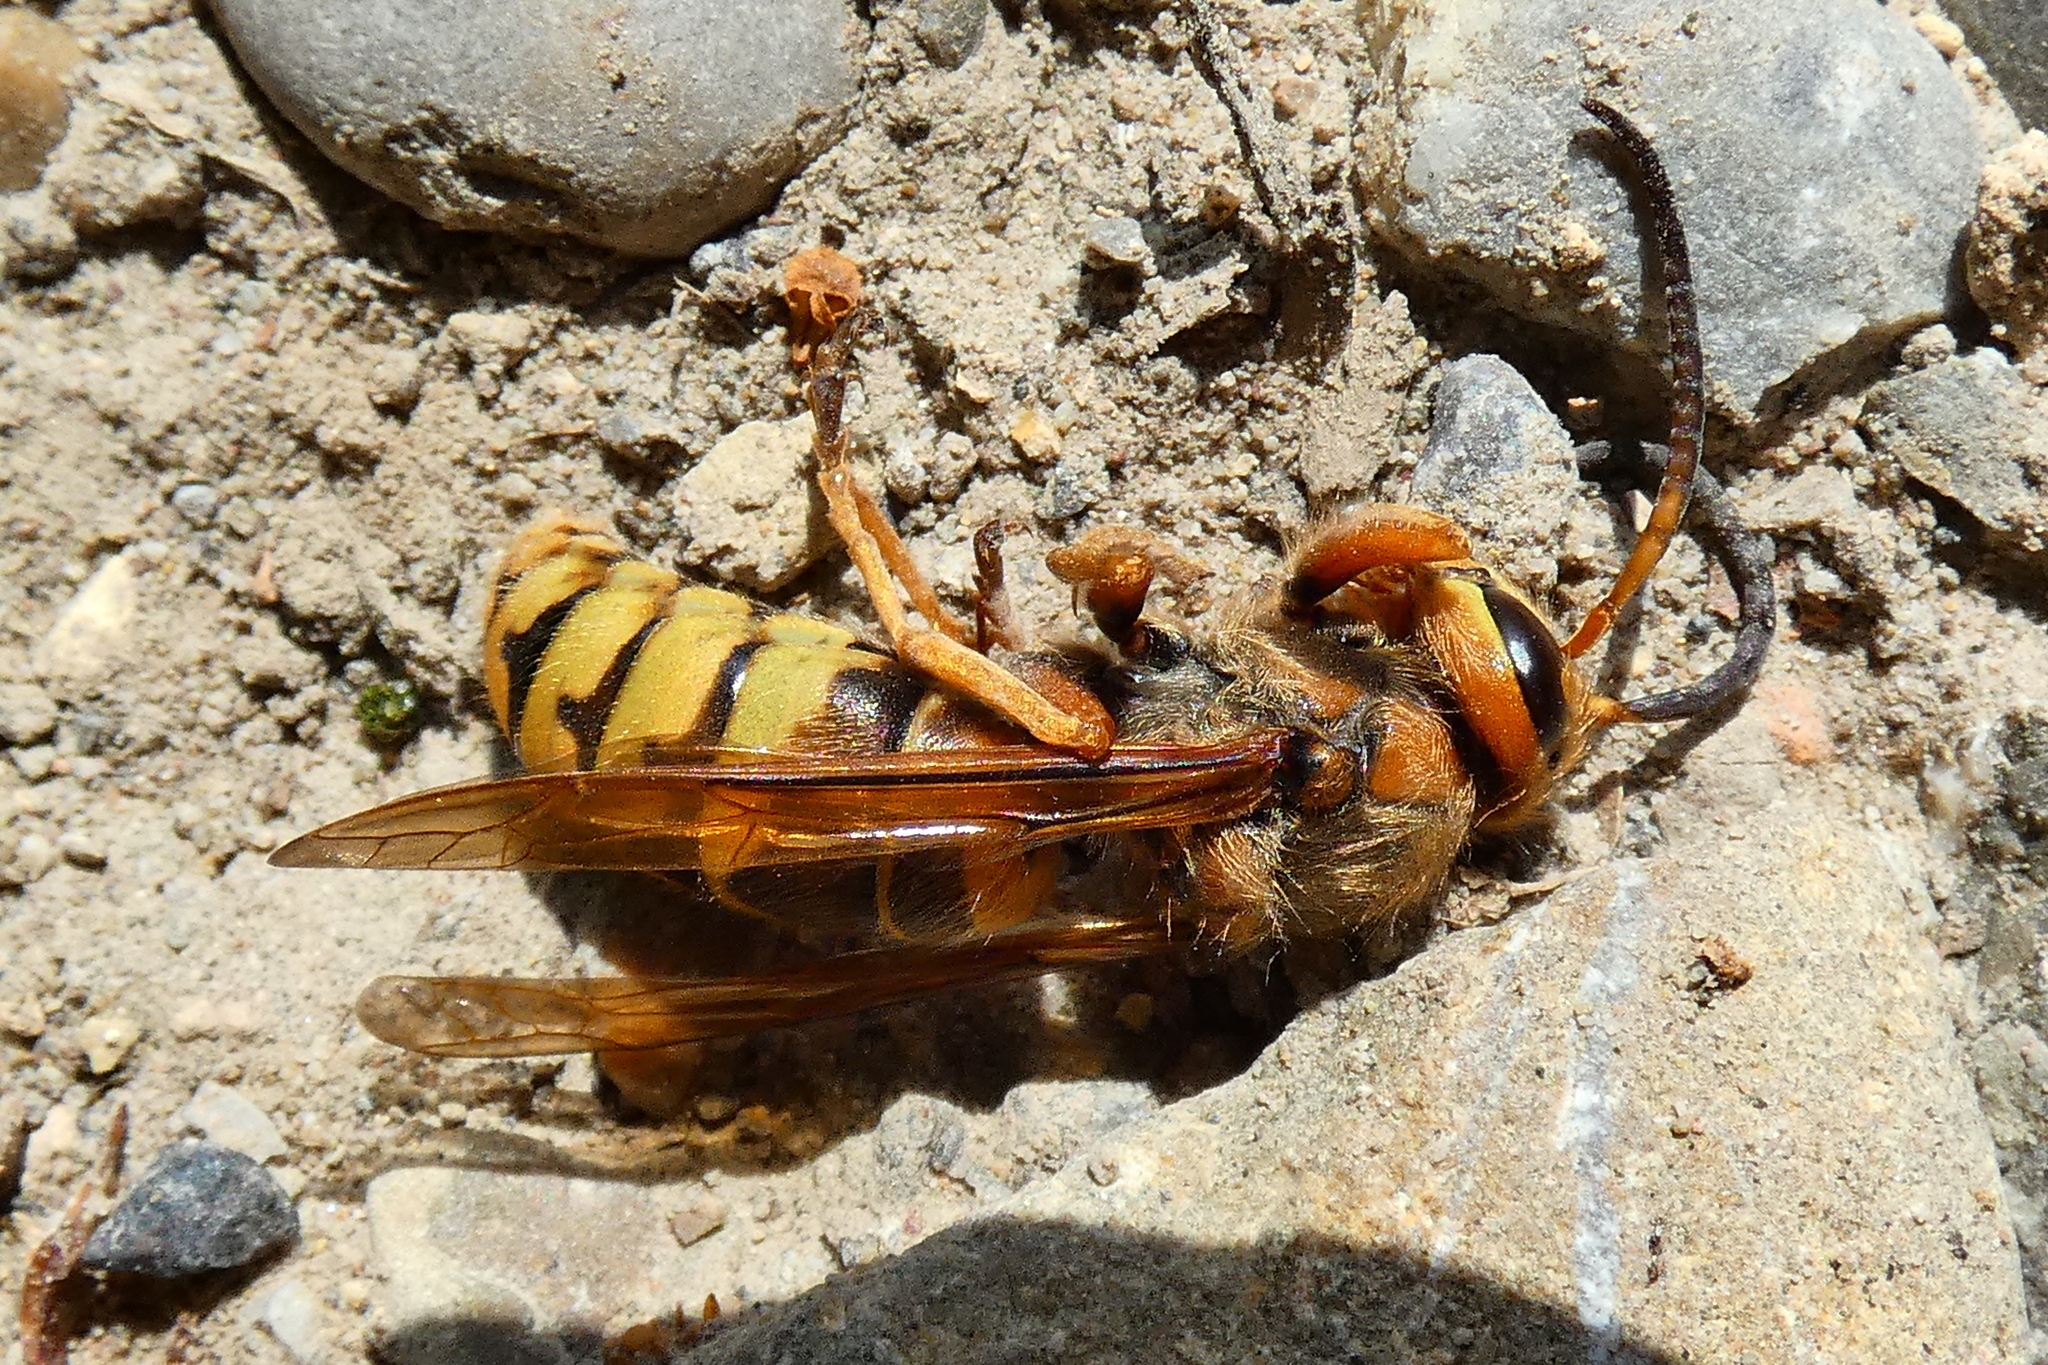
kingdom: Animalia
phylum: Arthropoda
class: Insecta
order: Hymenoptera
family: Vespidae
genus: Vespa
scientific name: Vespa crabro
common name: Hornet
